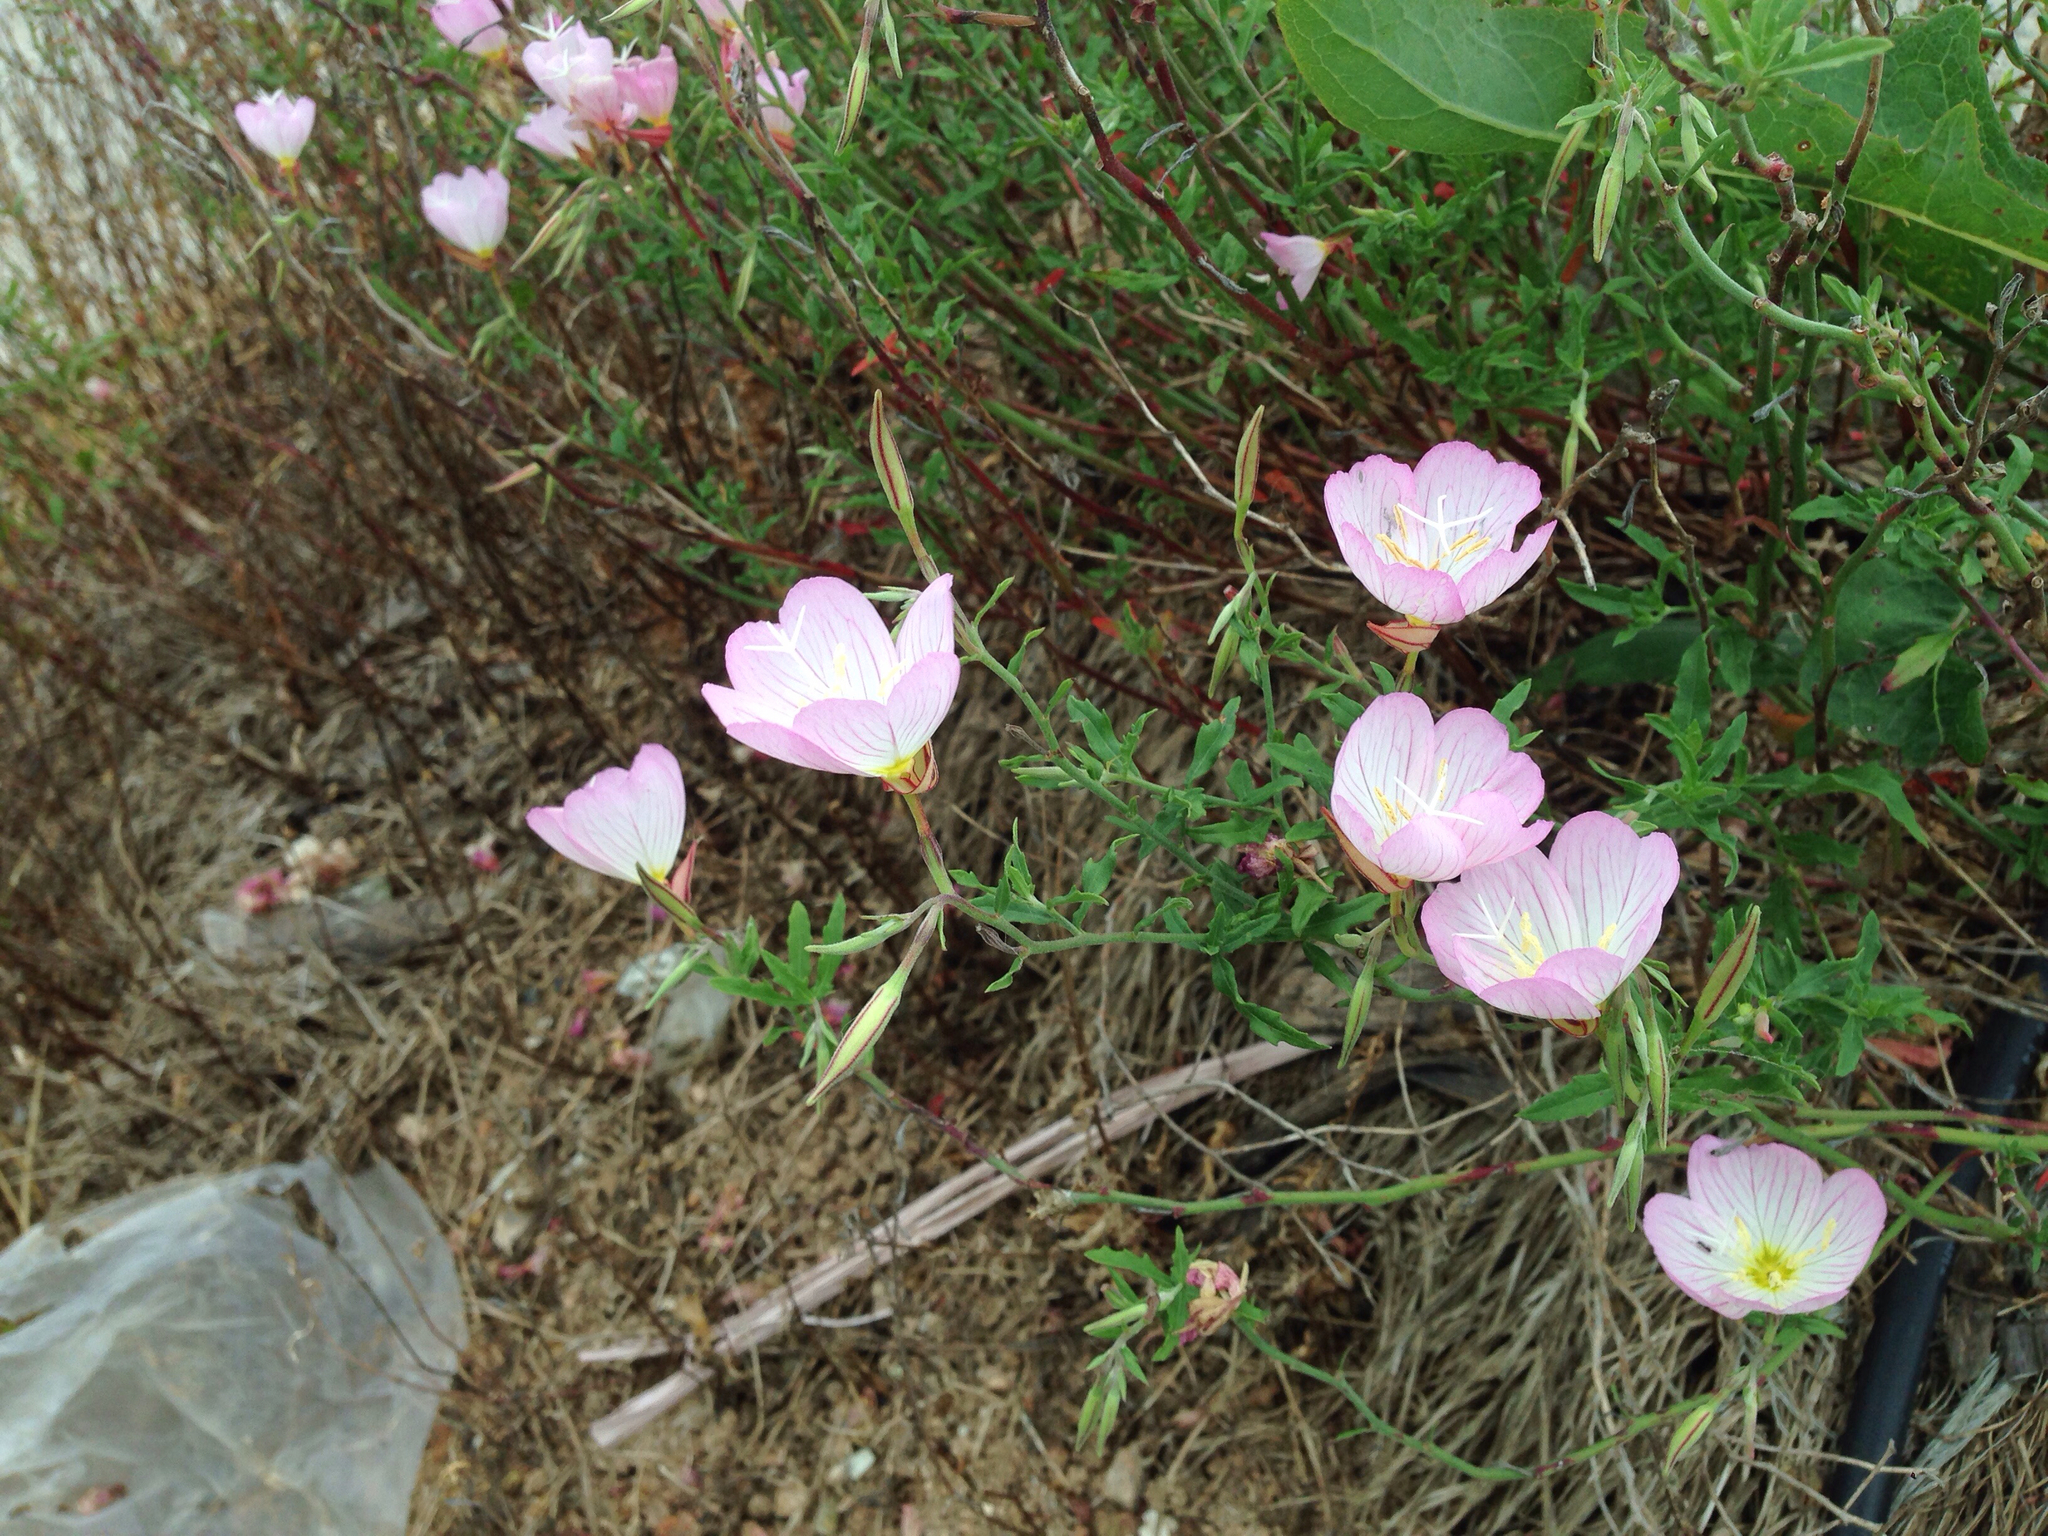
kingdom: Plantae
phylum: Tracheophyta
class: Magnoliopsida
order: Myrtales
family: Onagraceae
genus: Oenothera
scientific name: Oenothera speciosa
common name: White evening-primrose
